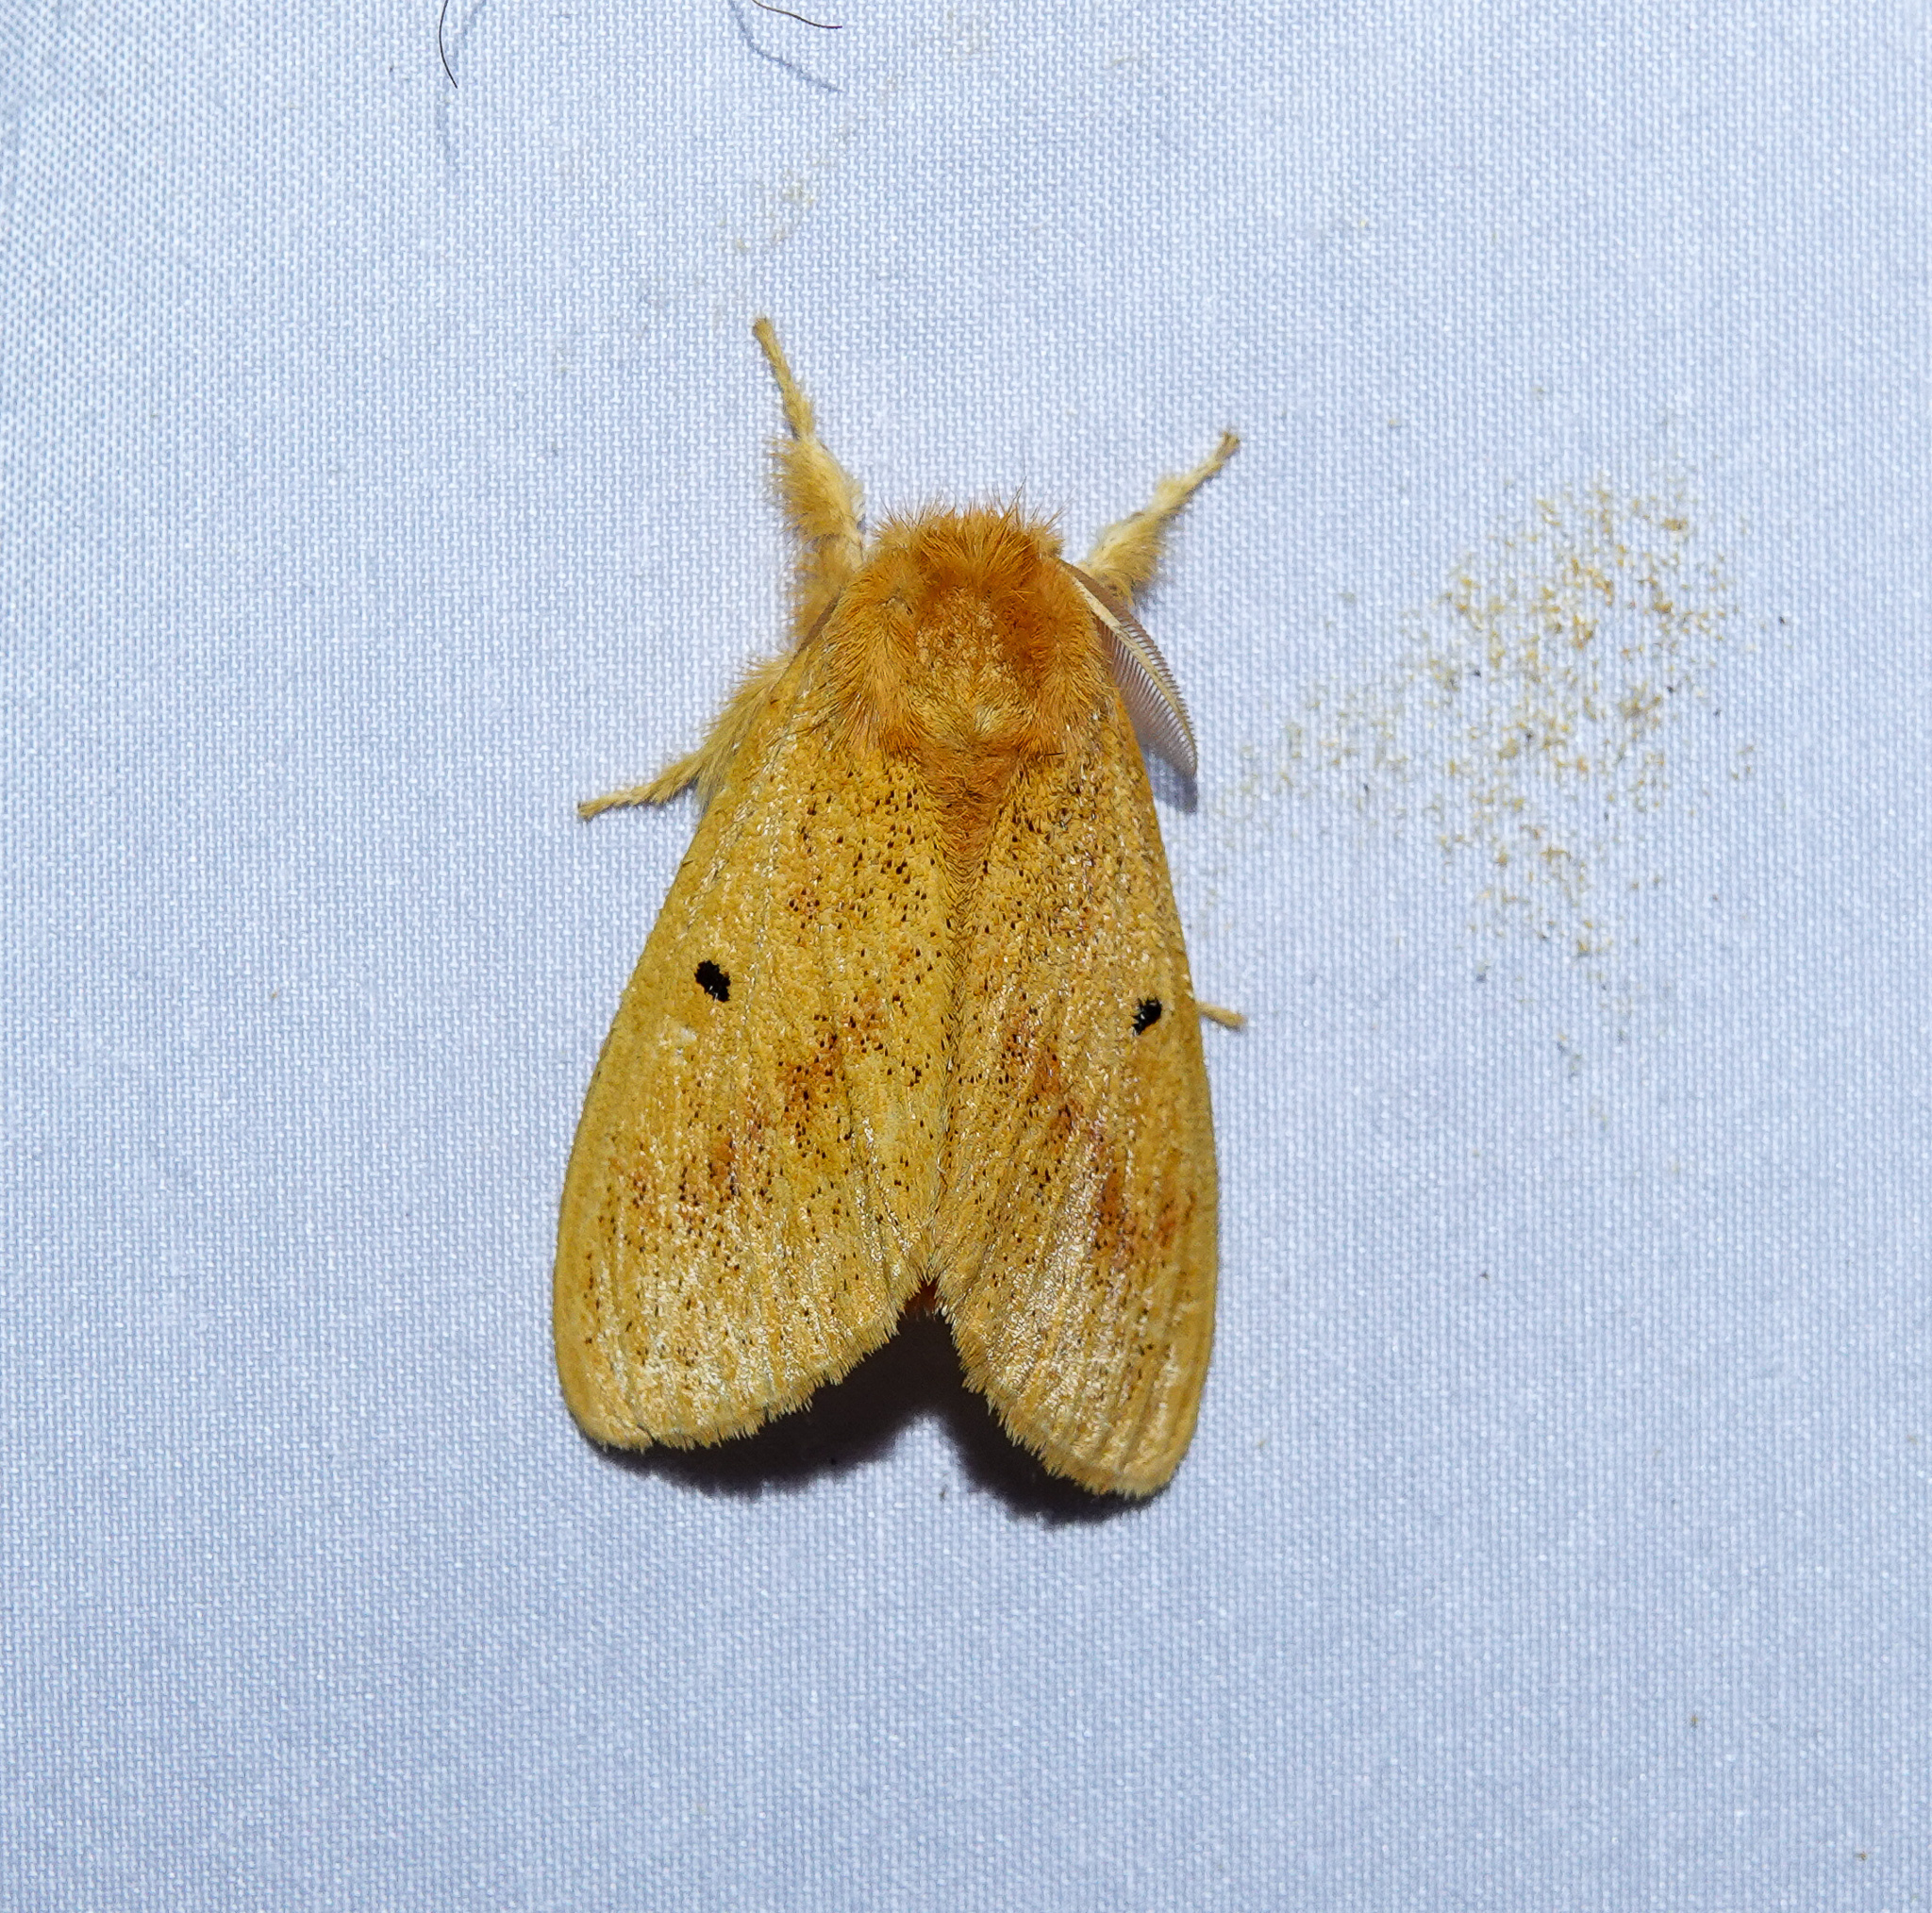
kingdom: Animalia
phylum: Arthropoda
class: Insecta
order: Lepidoptera
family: Erebidae
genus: Nygmia
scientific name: Nygmia plana
